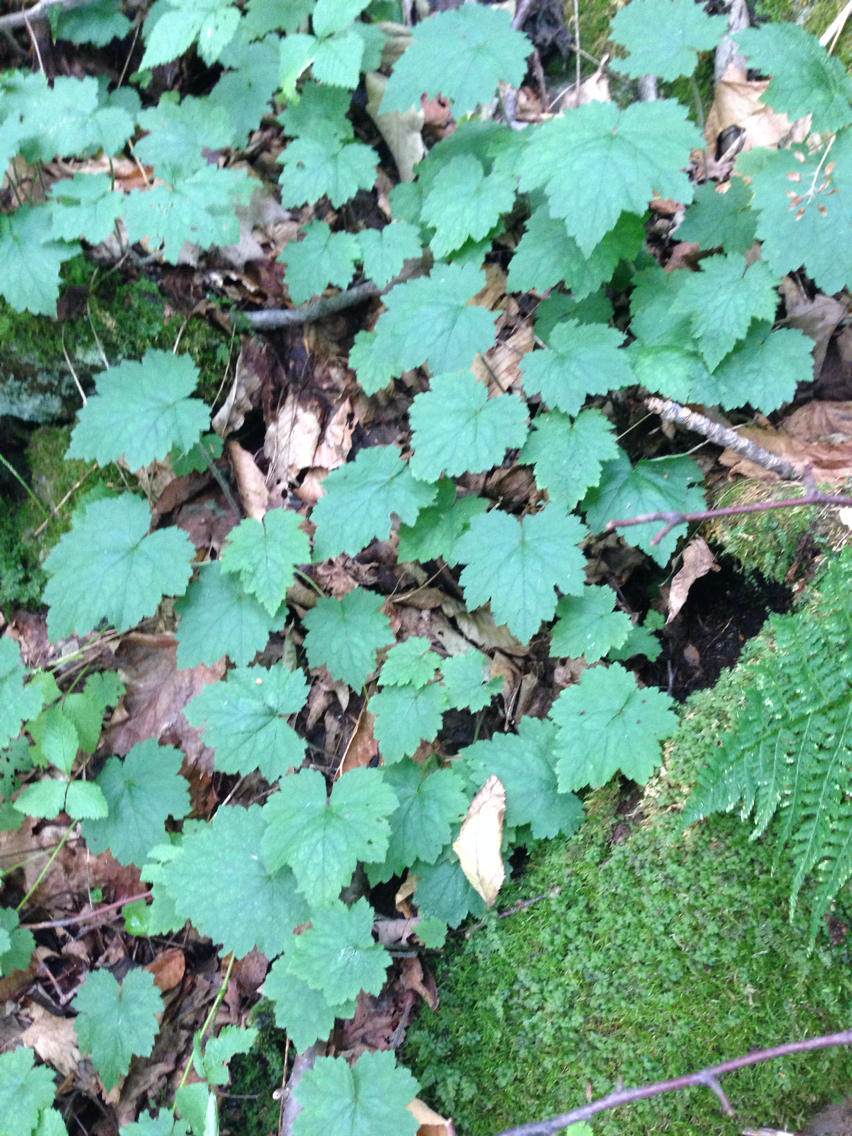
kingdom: Plantae
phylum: Tracheophyta
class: Magnoliopsida
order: Saxifragales
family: Saxifragaceae
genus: Tiarella
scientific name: Tiarella stolonifera
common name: Stoloniferous foamflower
